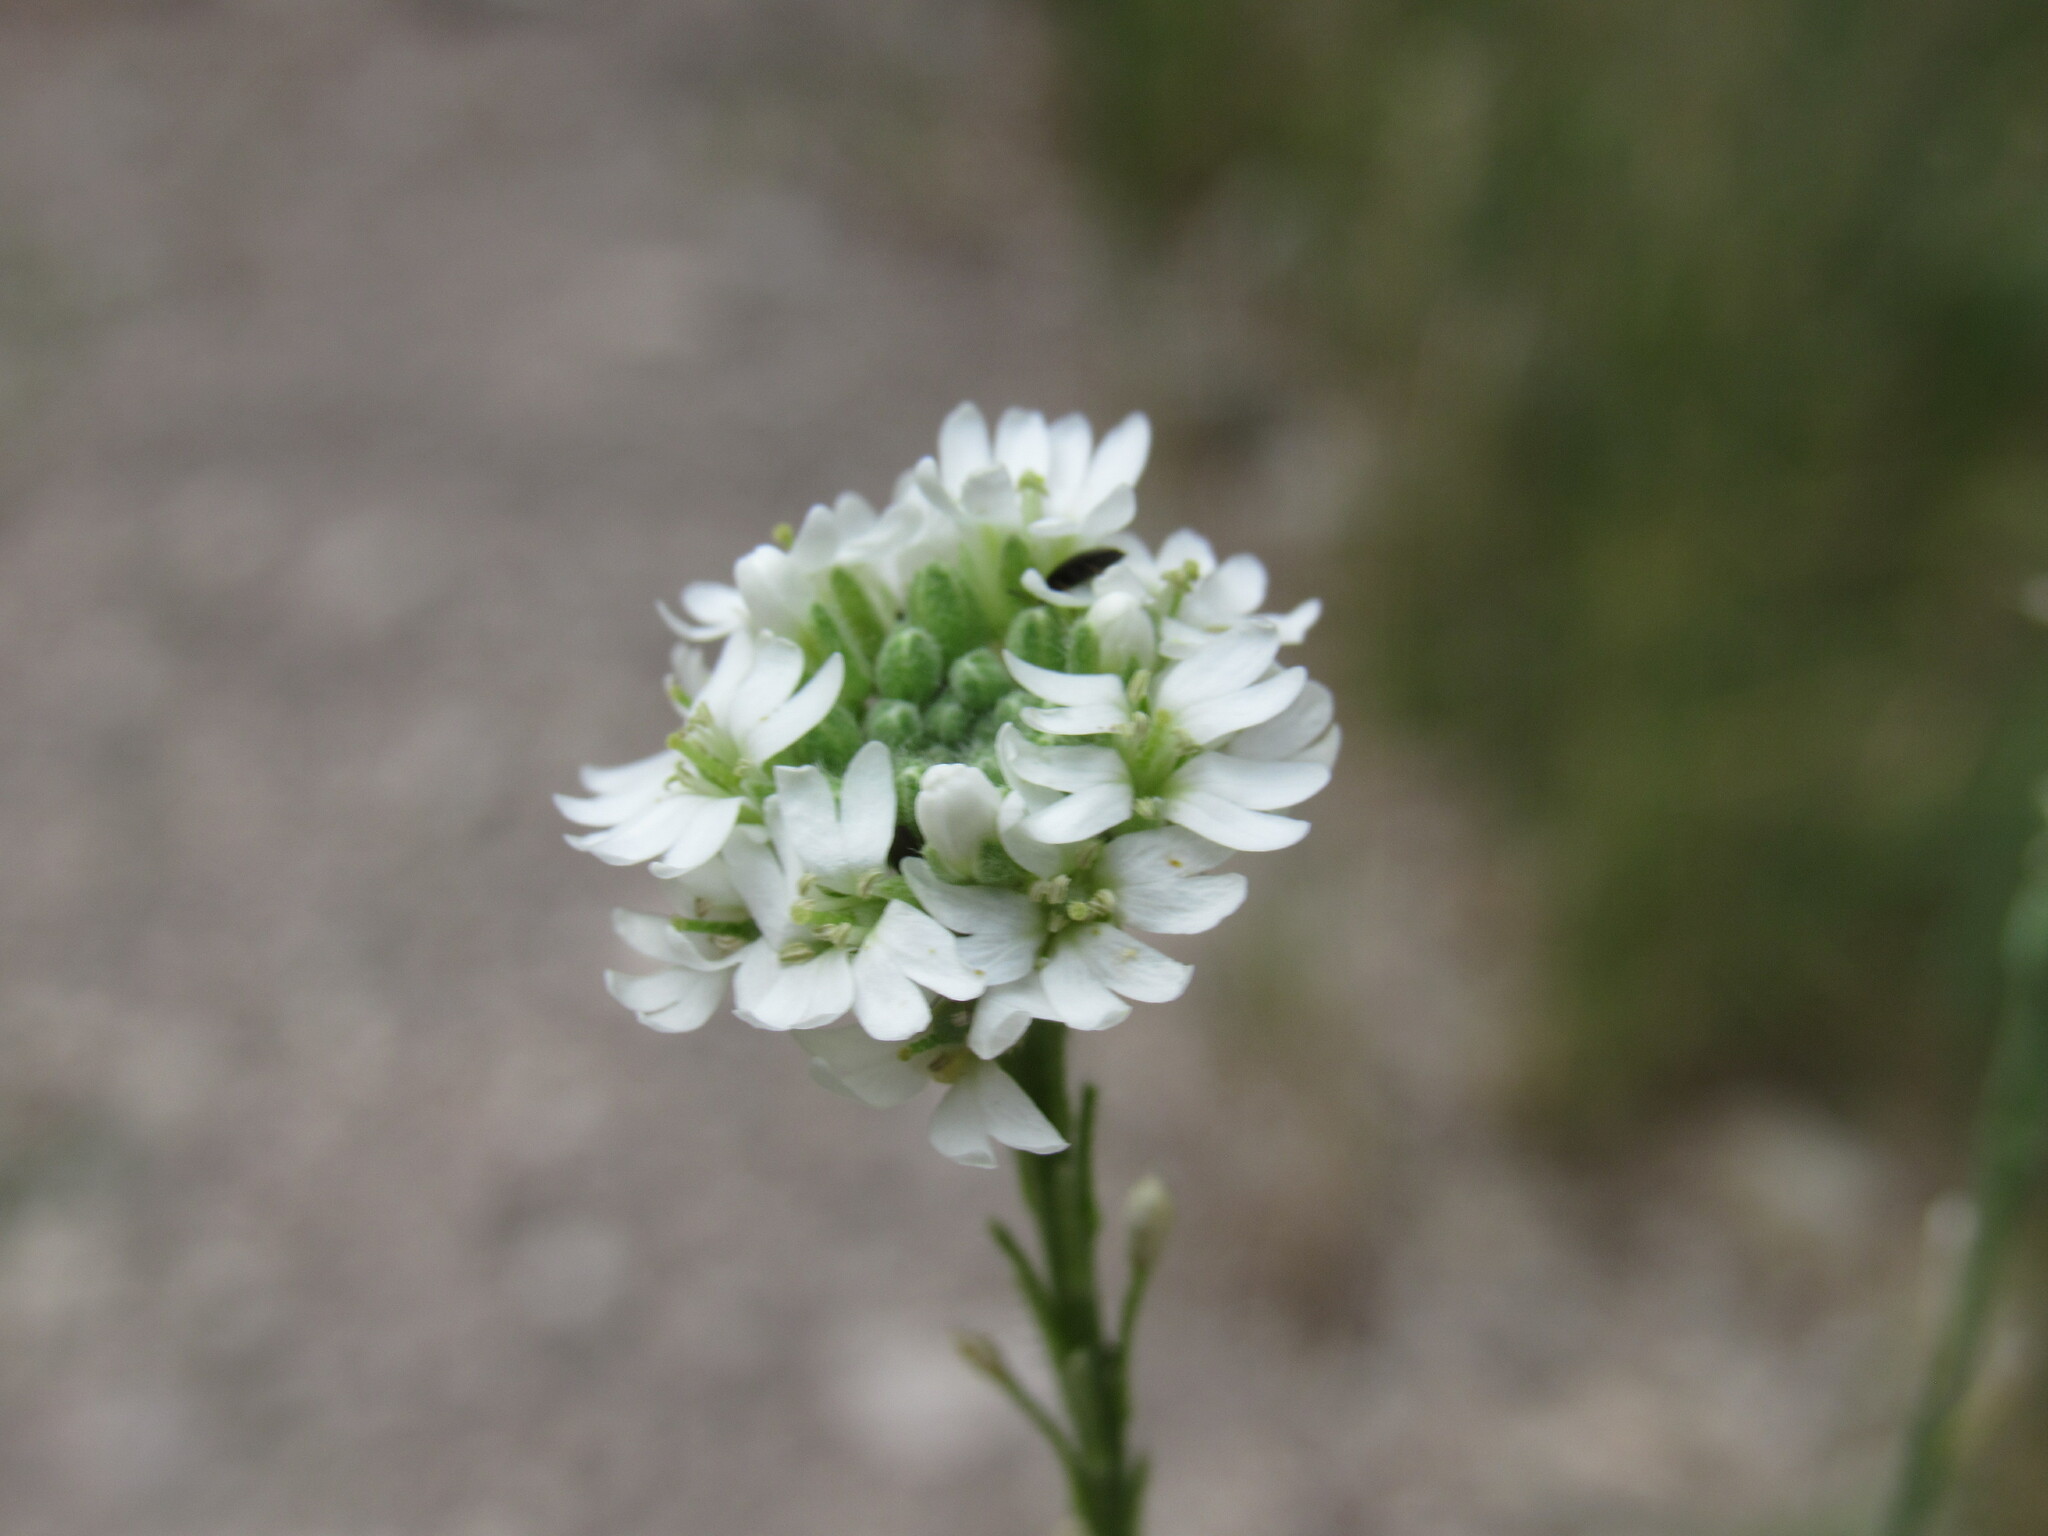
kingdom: Plantae
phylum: Tracheophyta
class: Magnoliopsida
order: Brassicales
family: Brassicaceae
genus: Berteroa
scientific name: Berteroa incana
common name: Hoary alison
